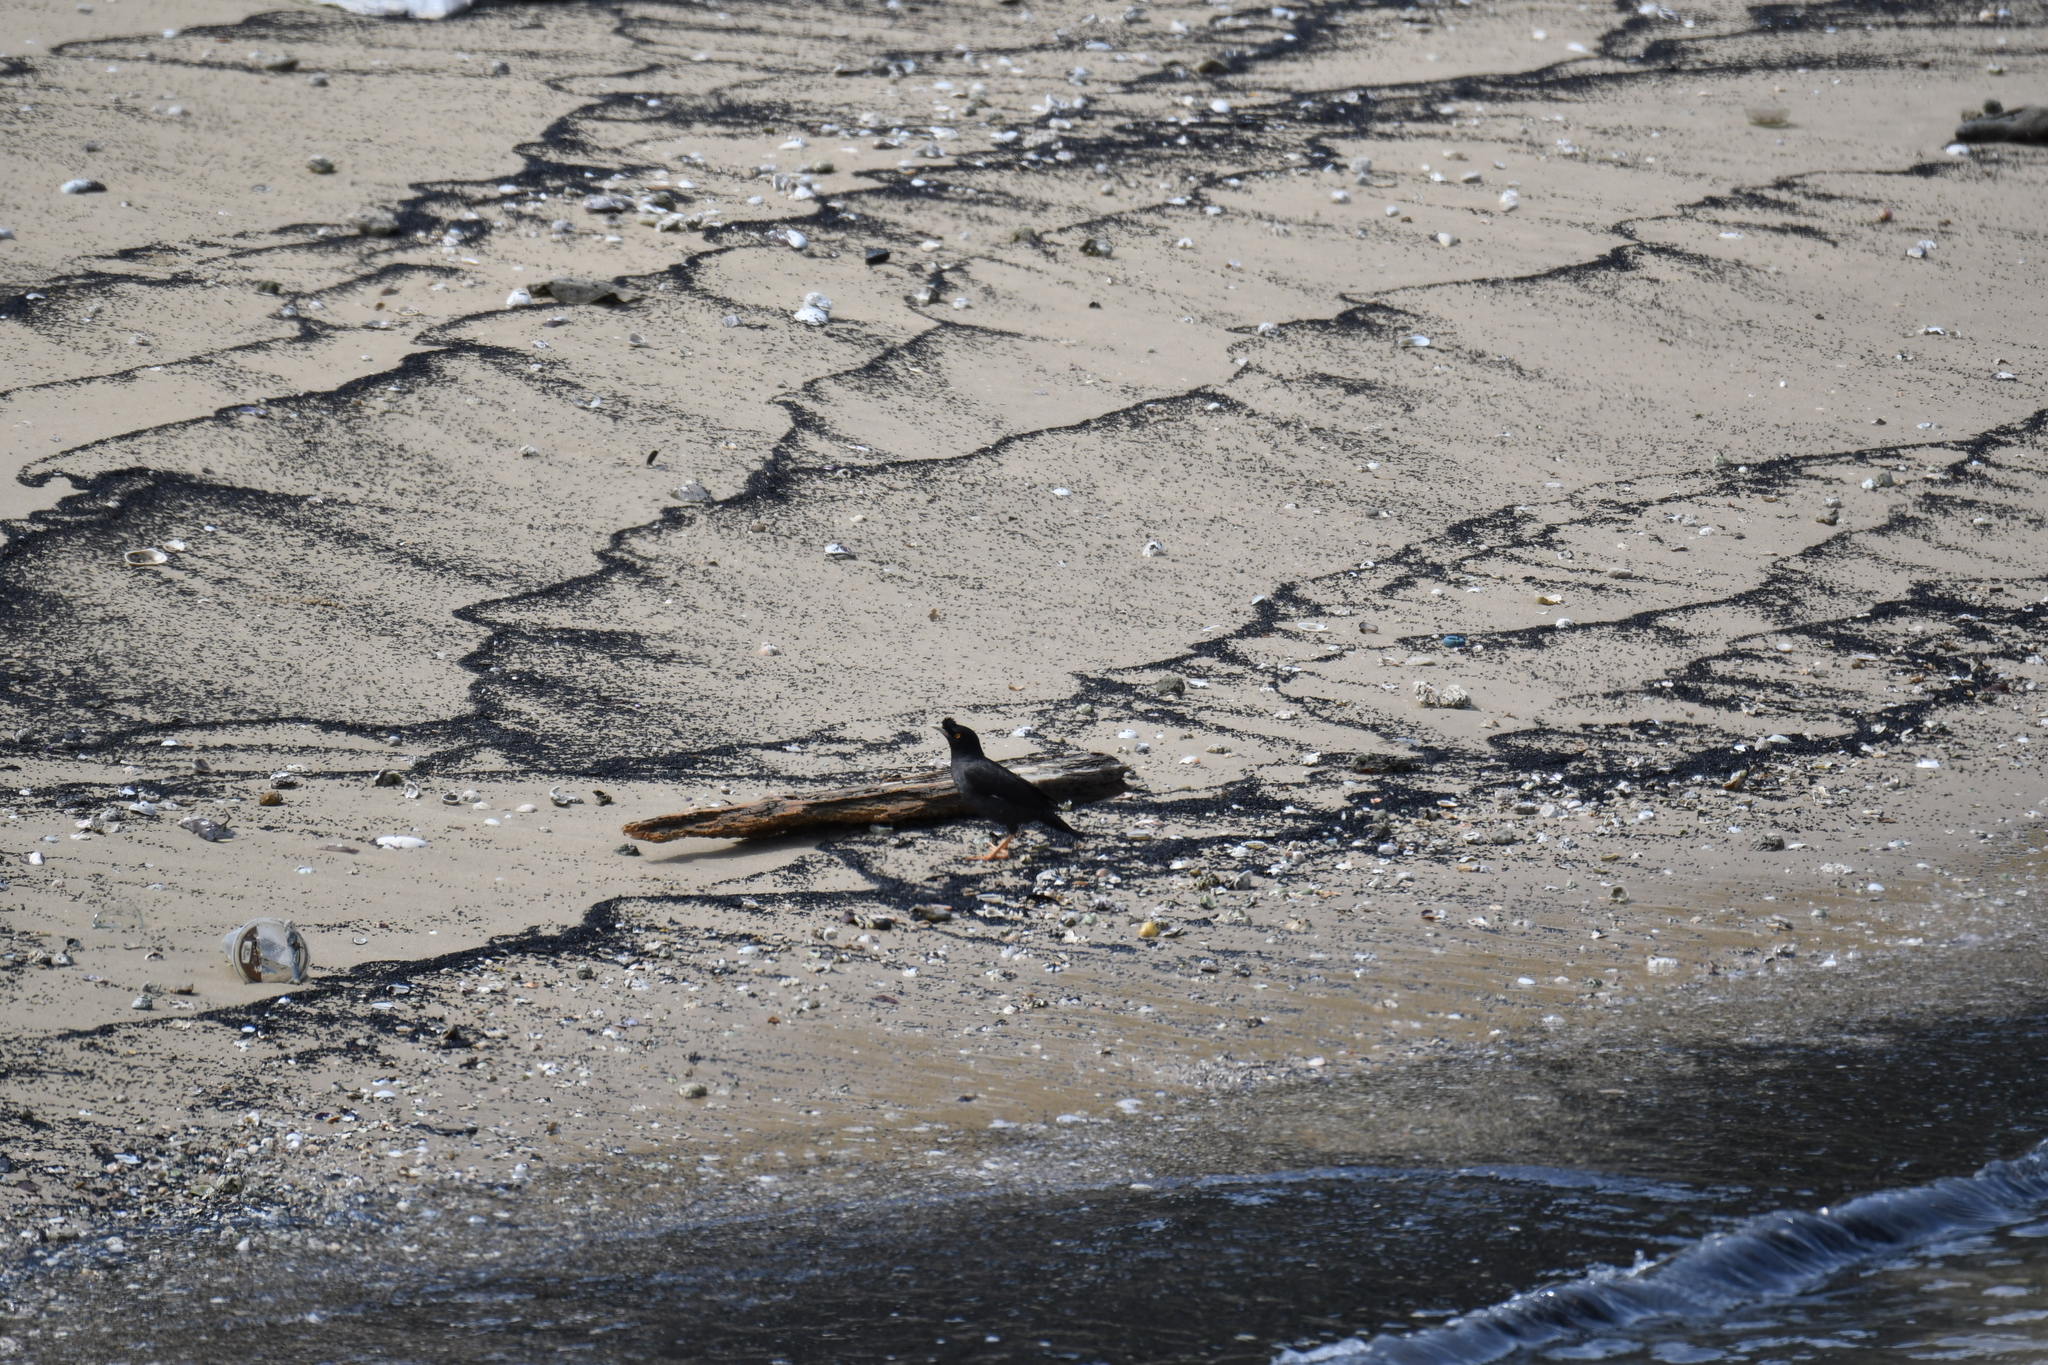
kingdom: Animalia
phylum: Chordata
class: Aves
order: Passeriformes
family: Sturnidae
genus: Acridotheres
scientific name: Acridotheres cristatellus
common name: Crested myna
